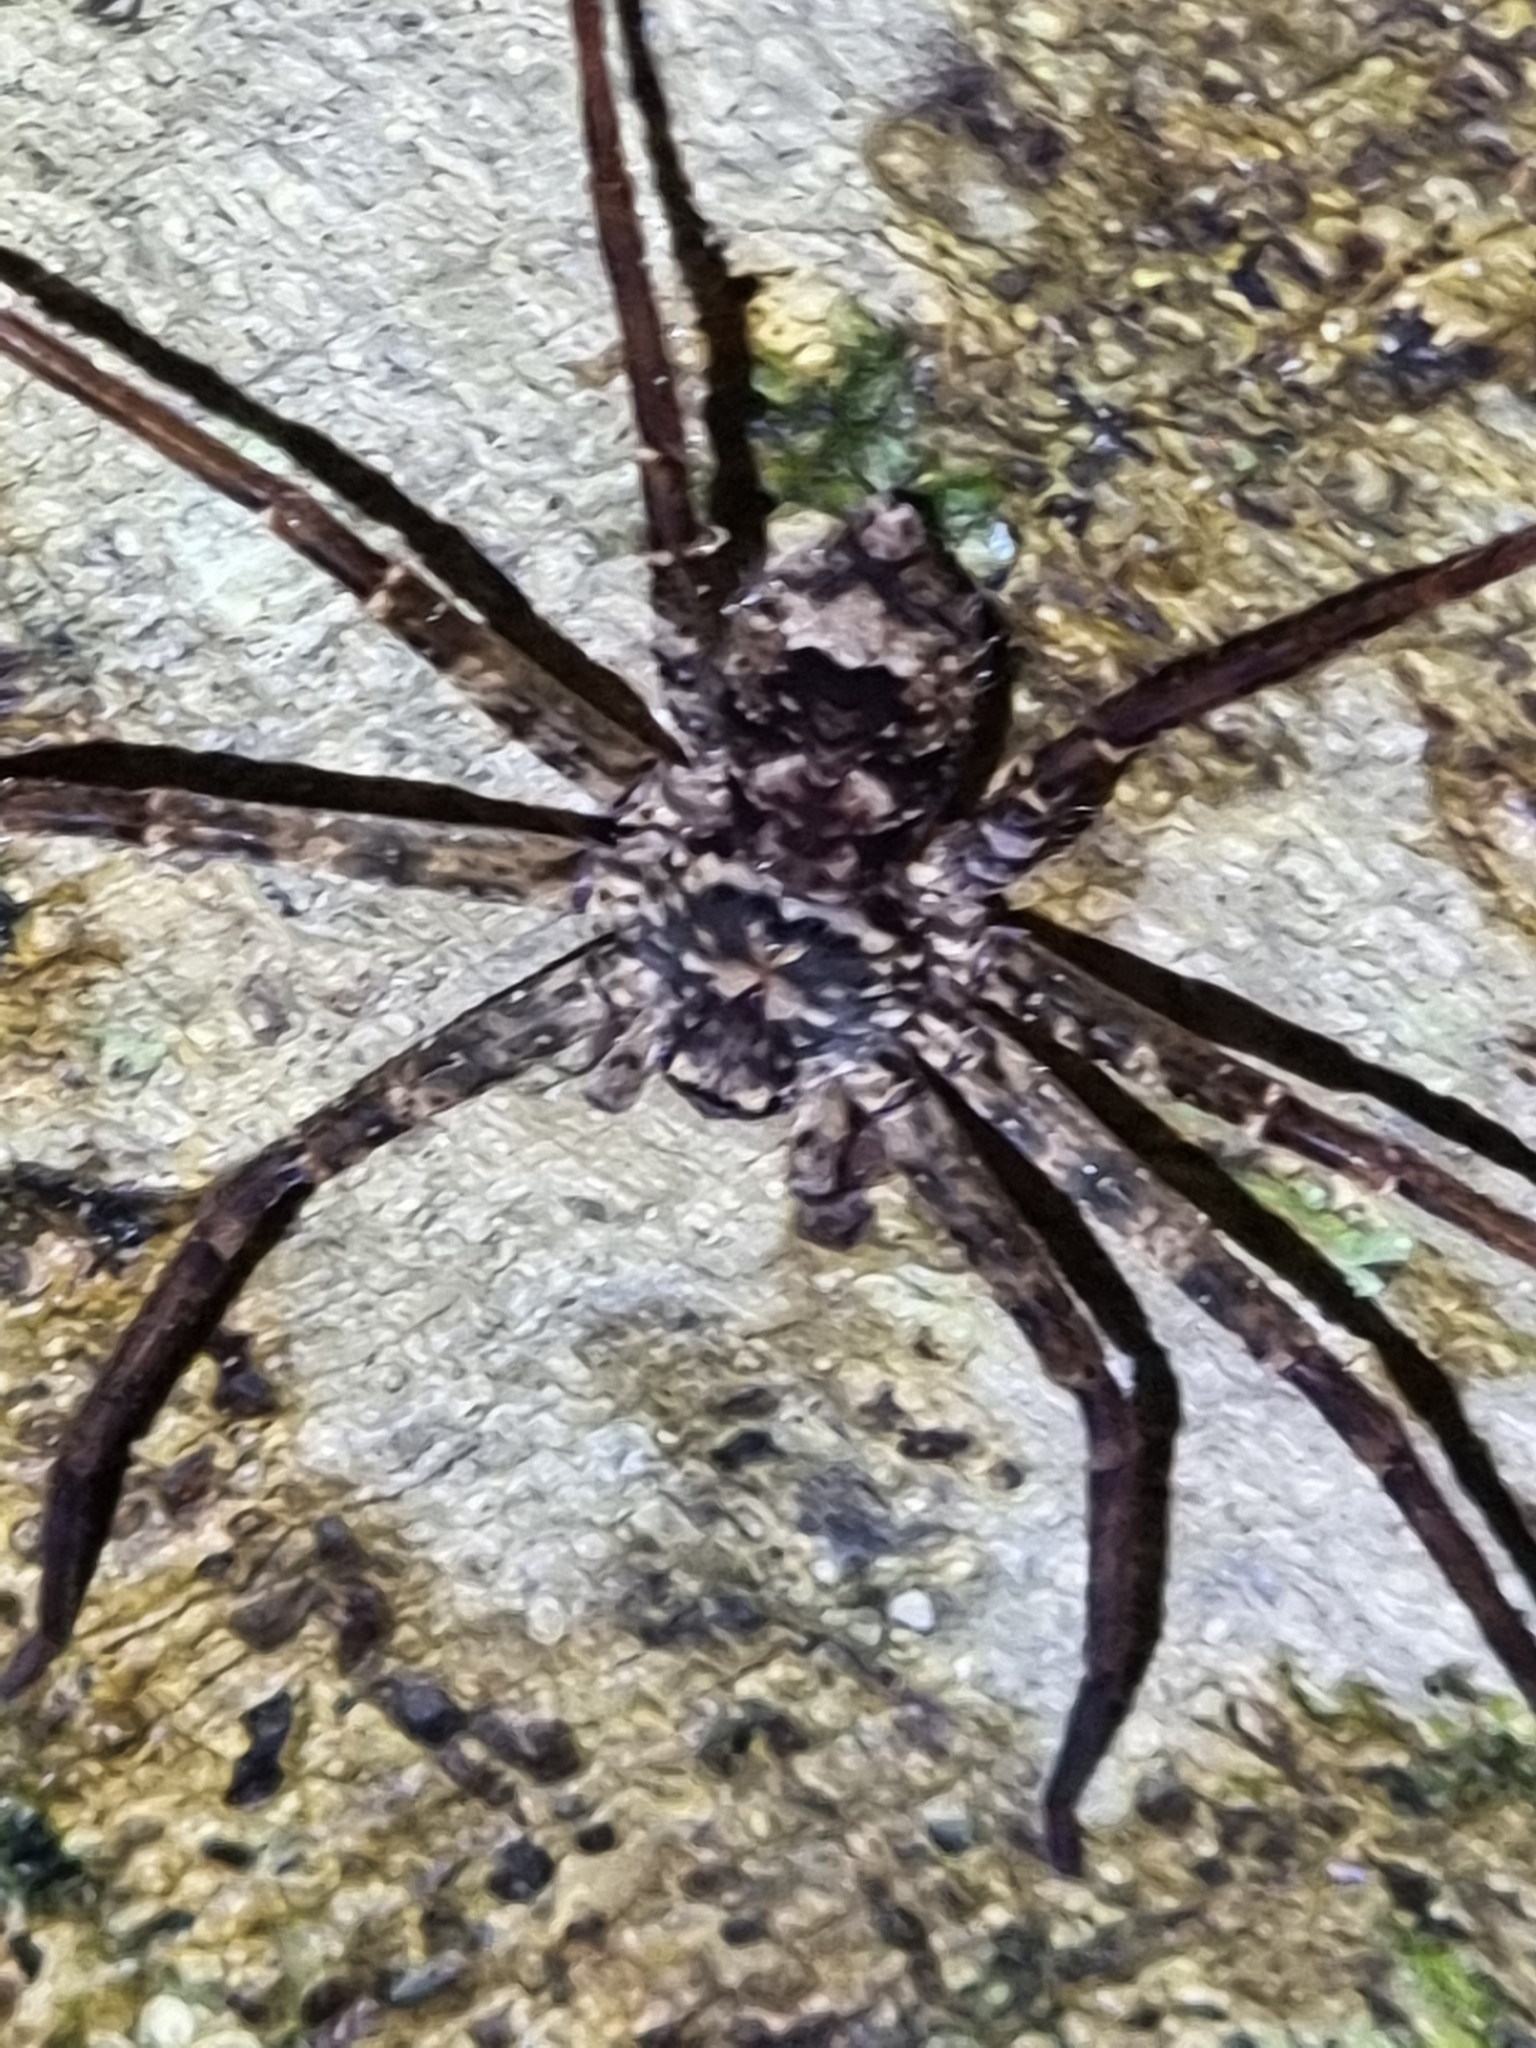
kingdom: Animalia
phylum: Arthropoda
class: Arachnida
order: Araneae
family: Sparassidae
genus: Heteropoda
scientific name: Heteropoda procera
